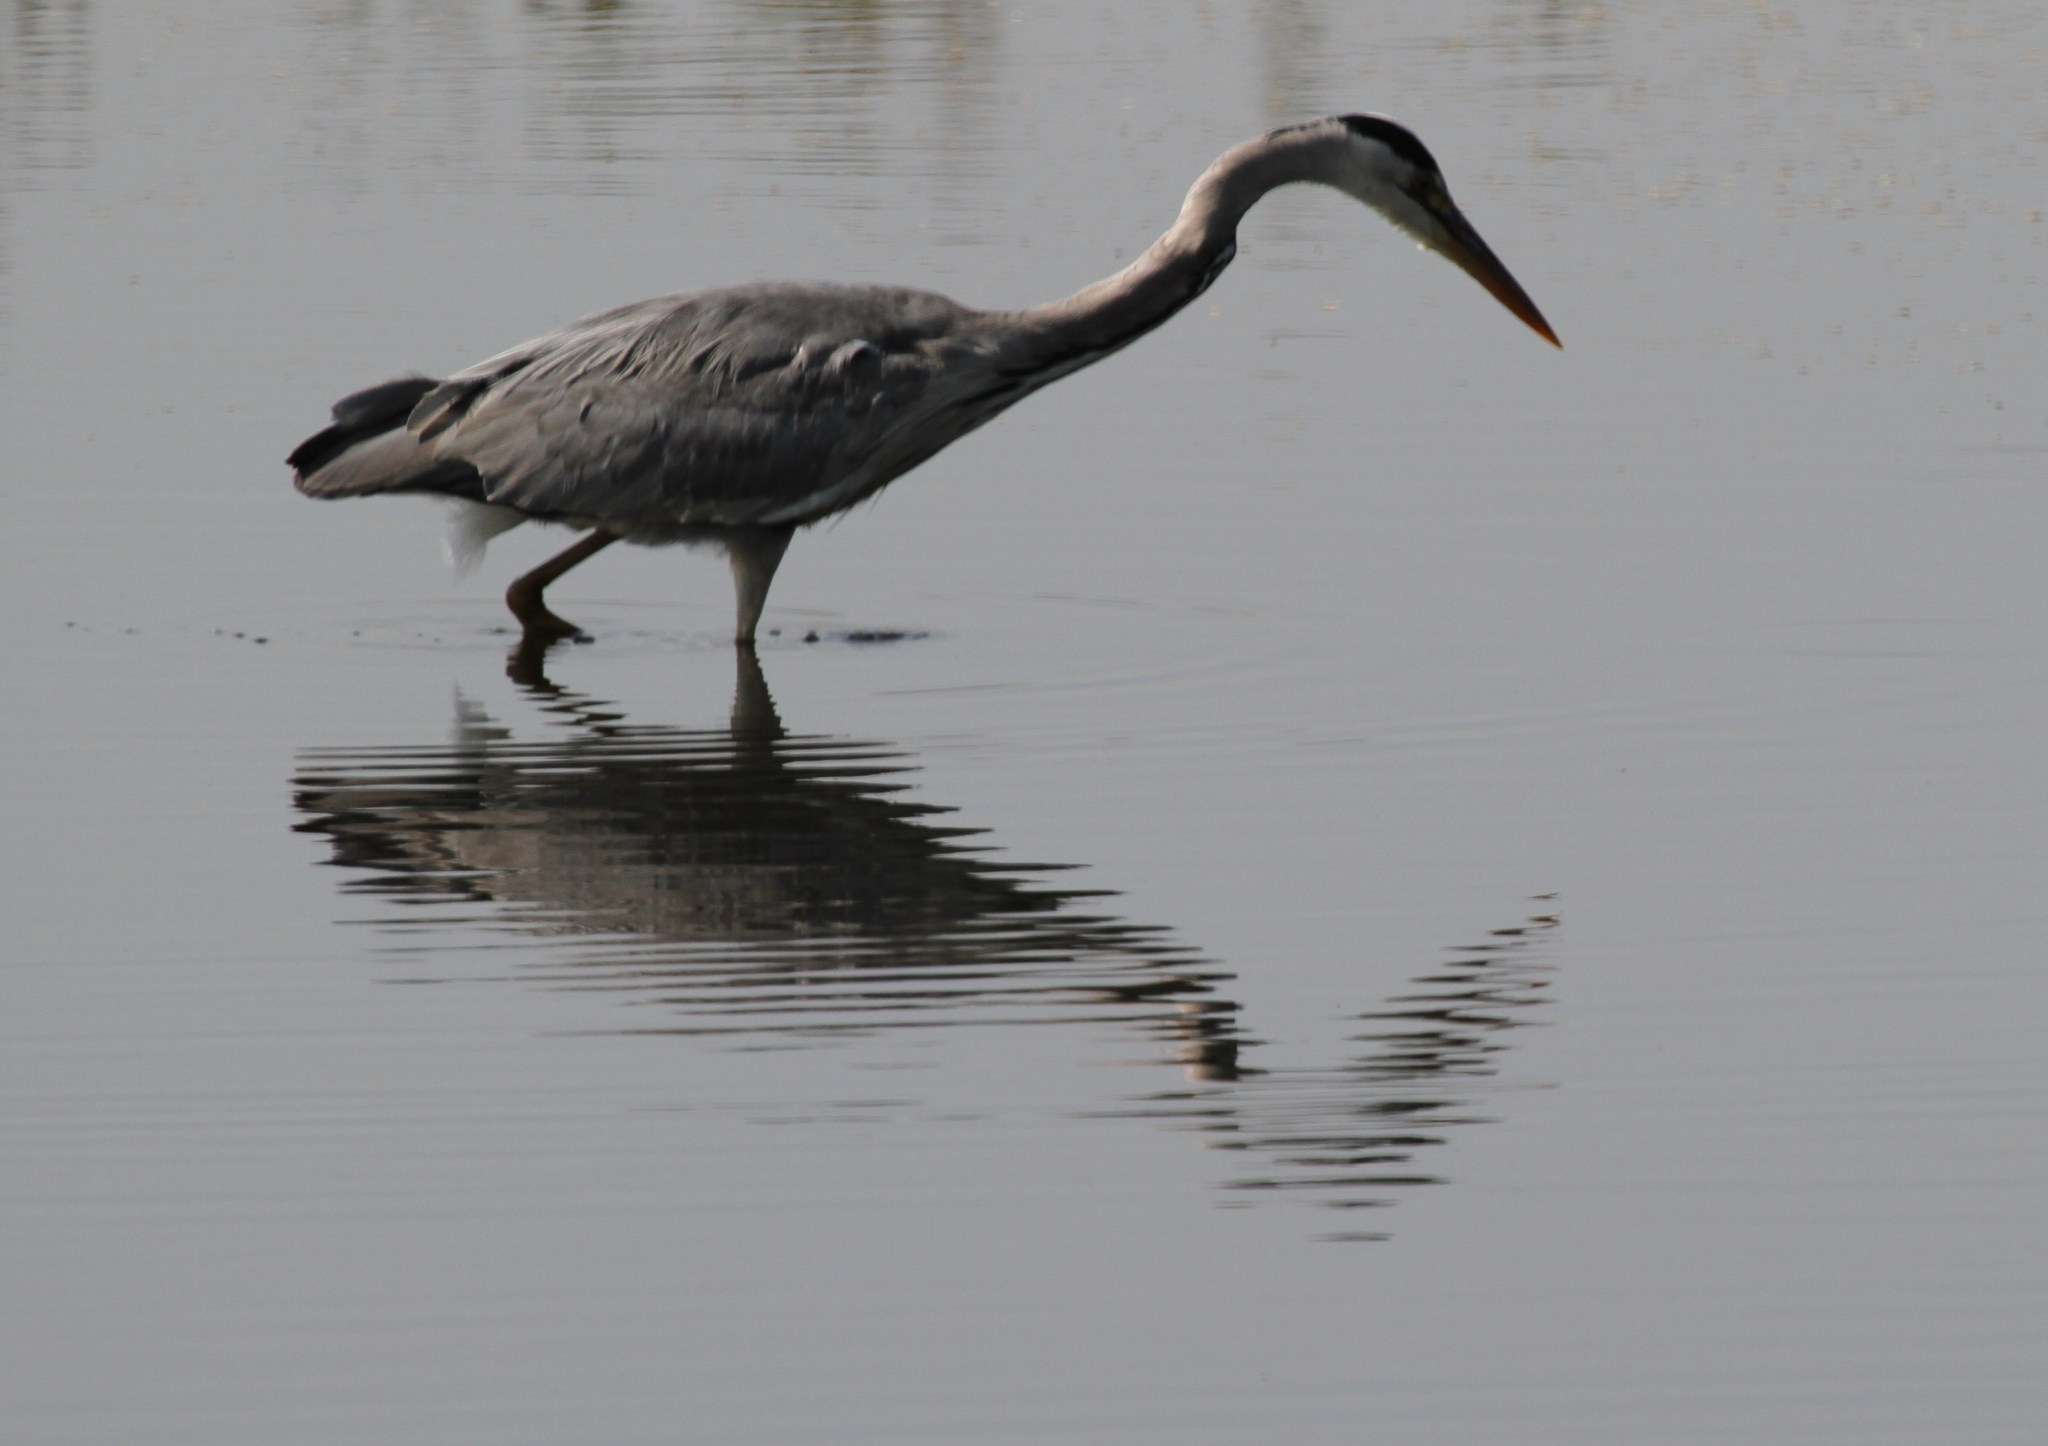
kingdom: Animalia
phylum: Chordata
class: Aves
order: Pelecaniformes
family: Ardeidae
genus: Ardea
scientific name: Ardea cinerea
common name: Grey heron
